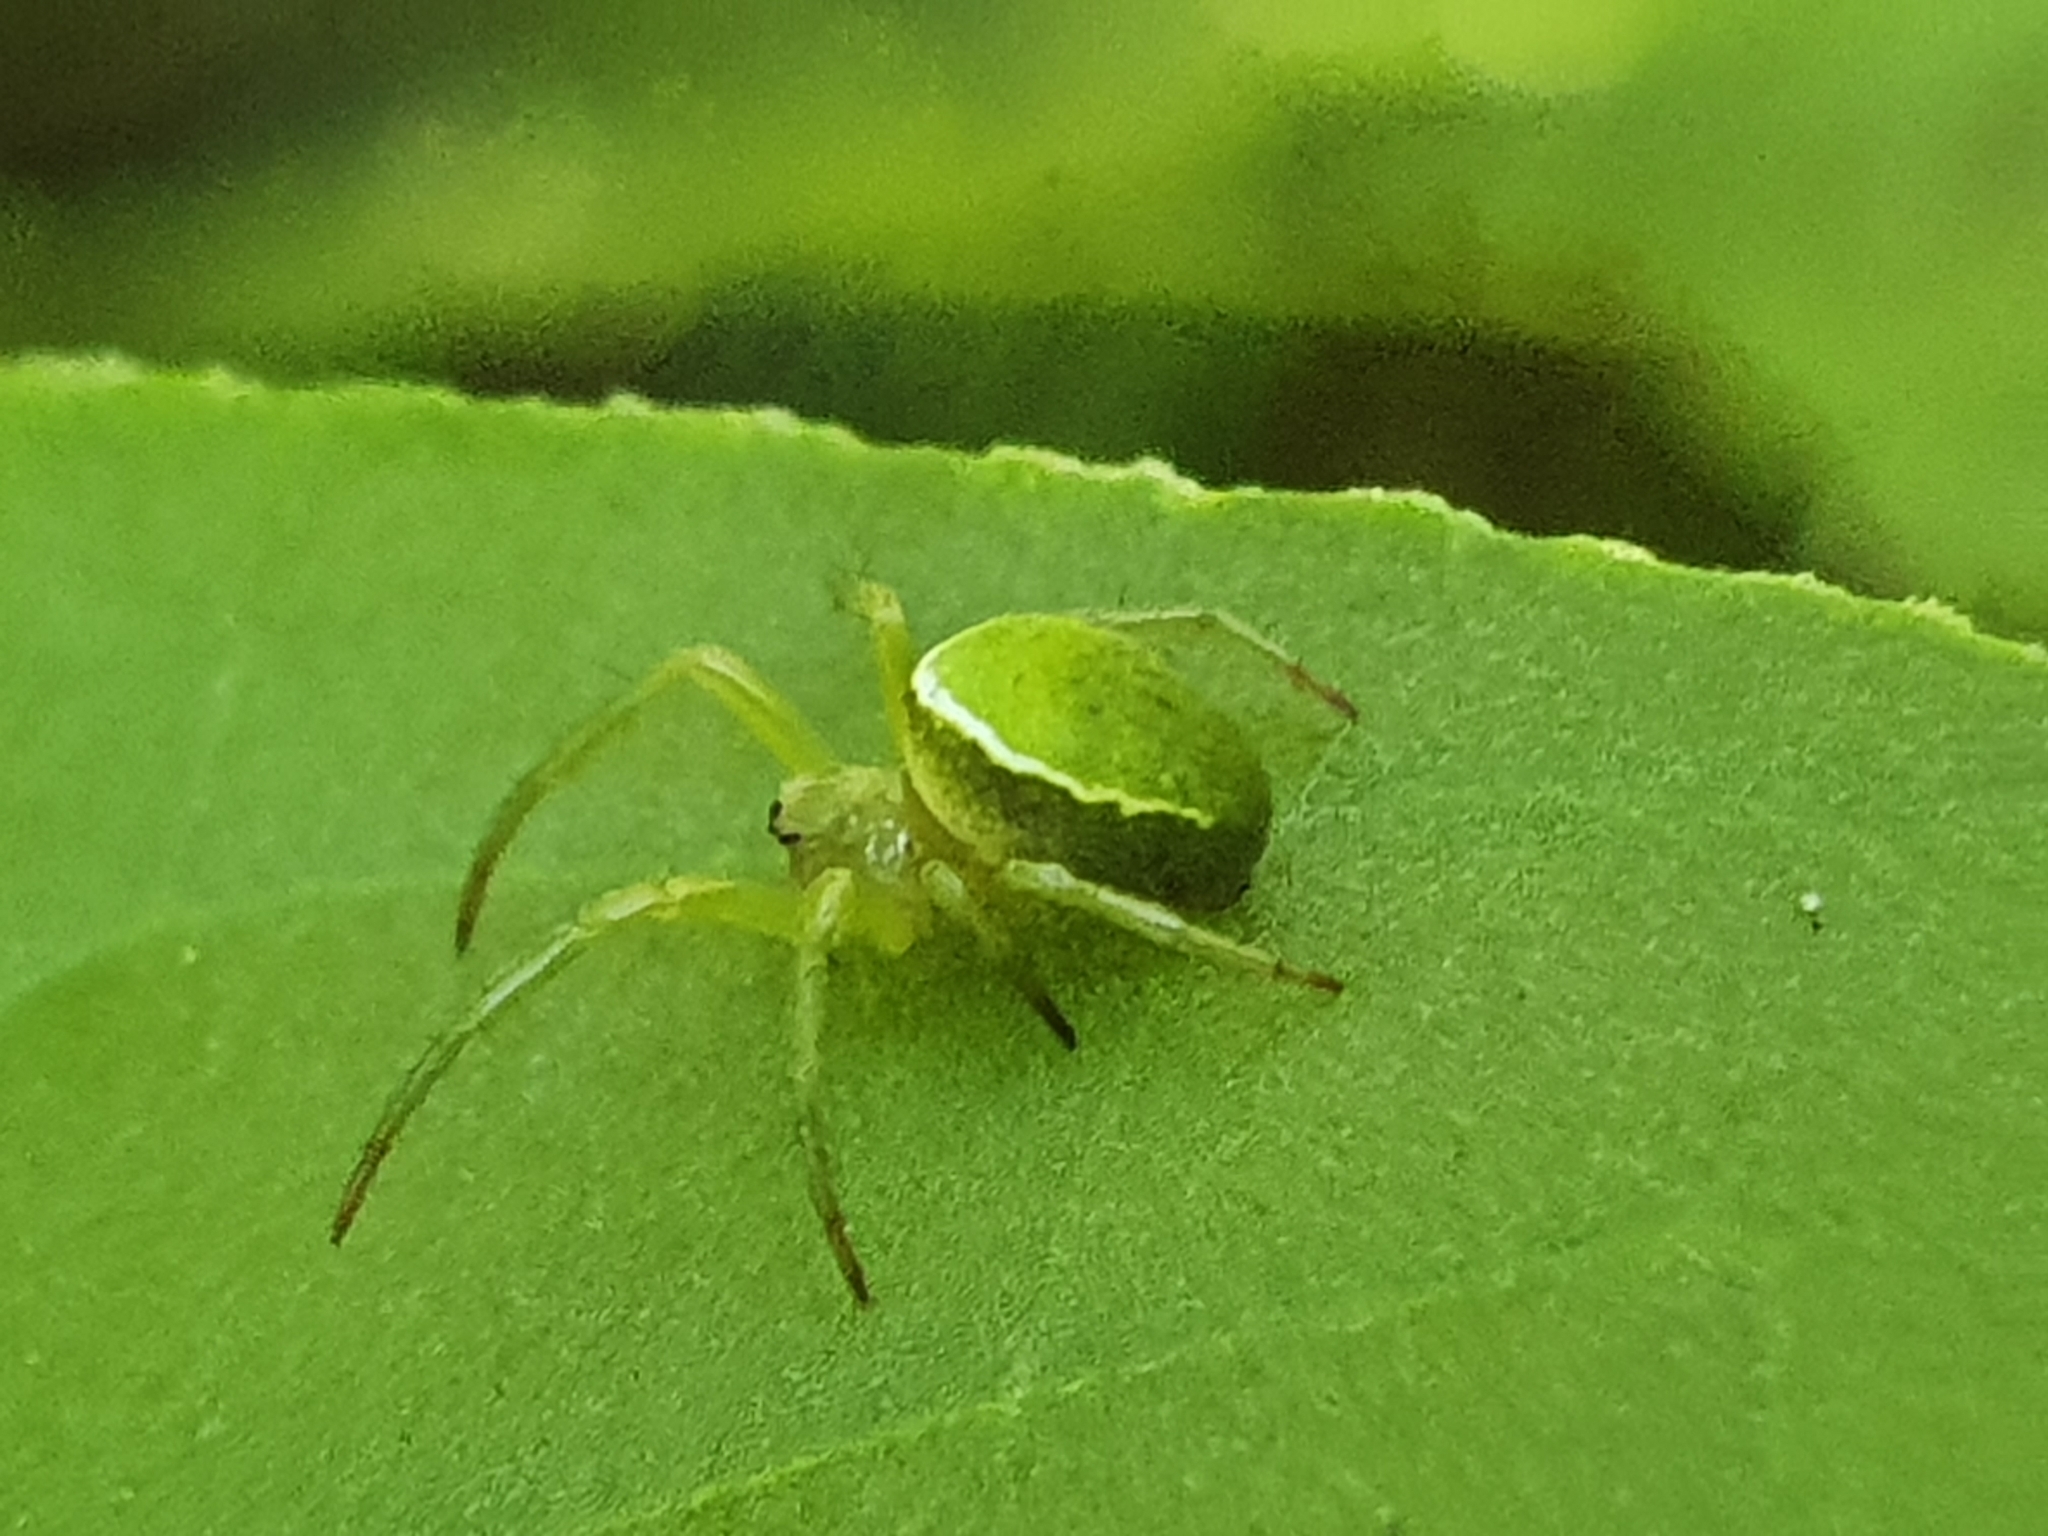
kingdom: Animalia
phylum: Arthropoda
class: Arachnida
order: Araneae
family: Araneidae
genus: Colaranea
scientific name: Colaranea viriditas
